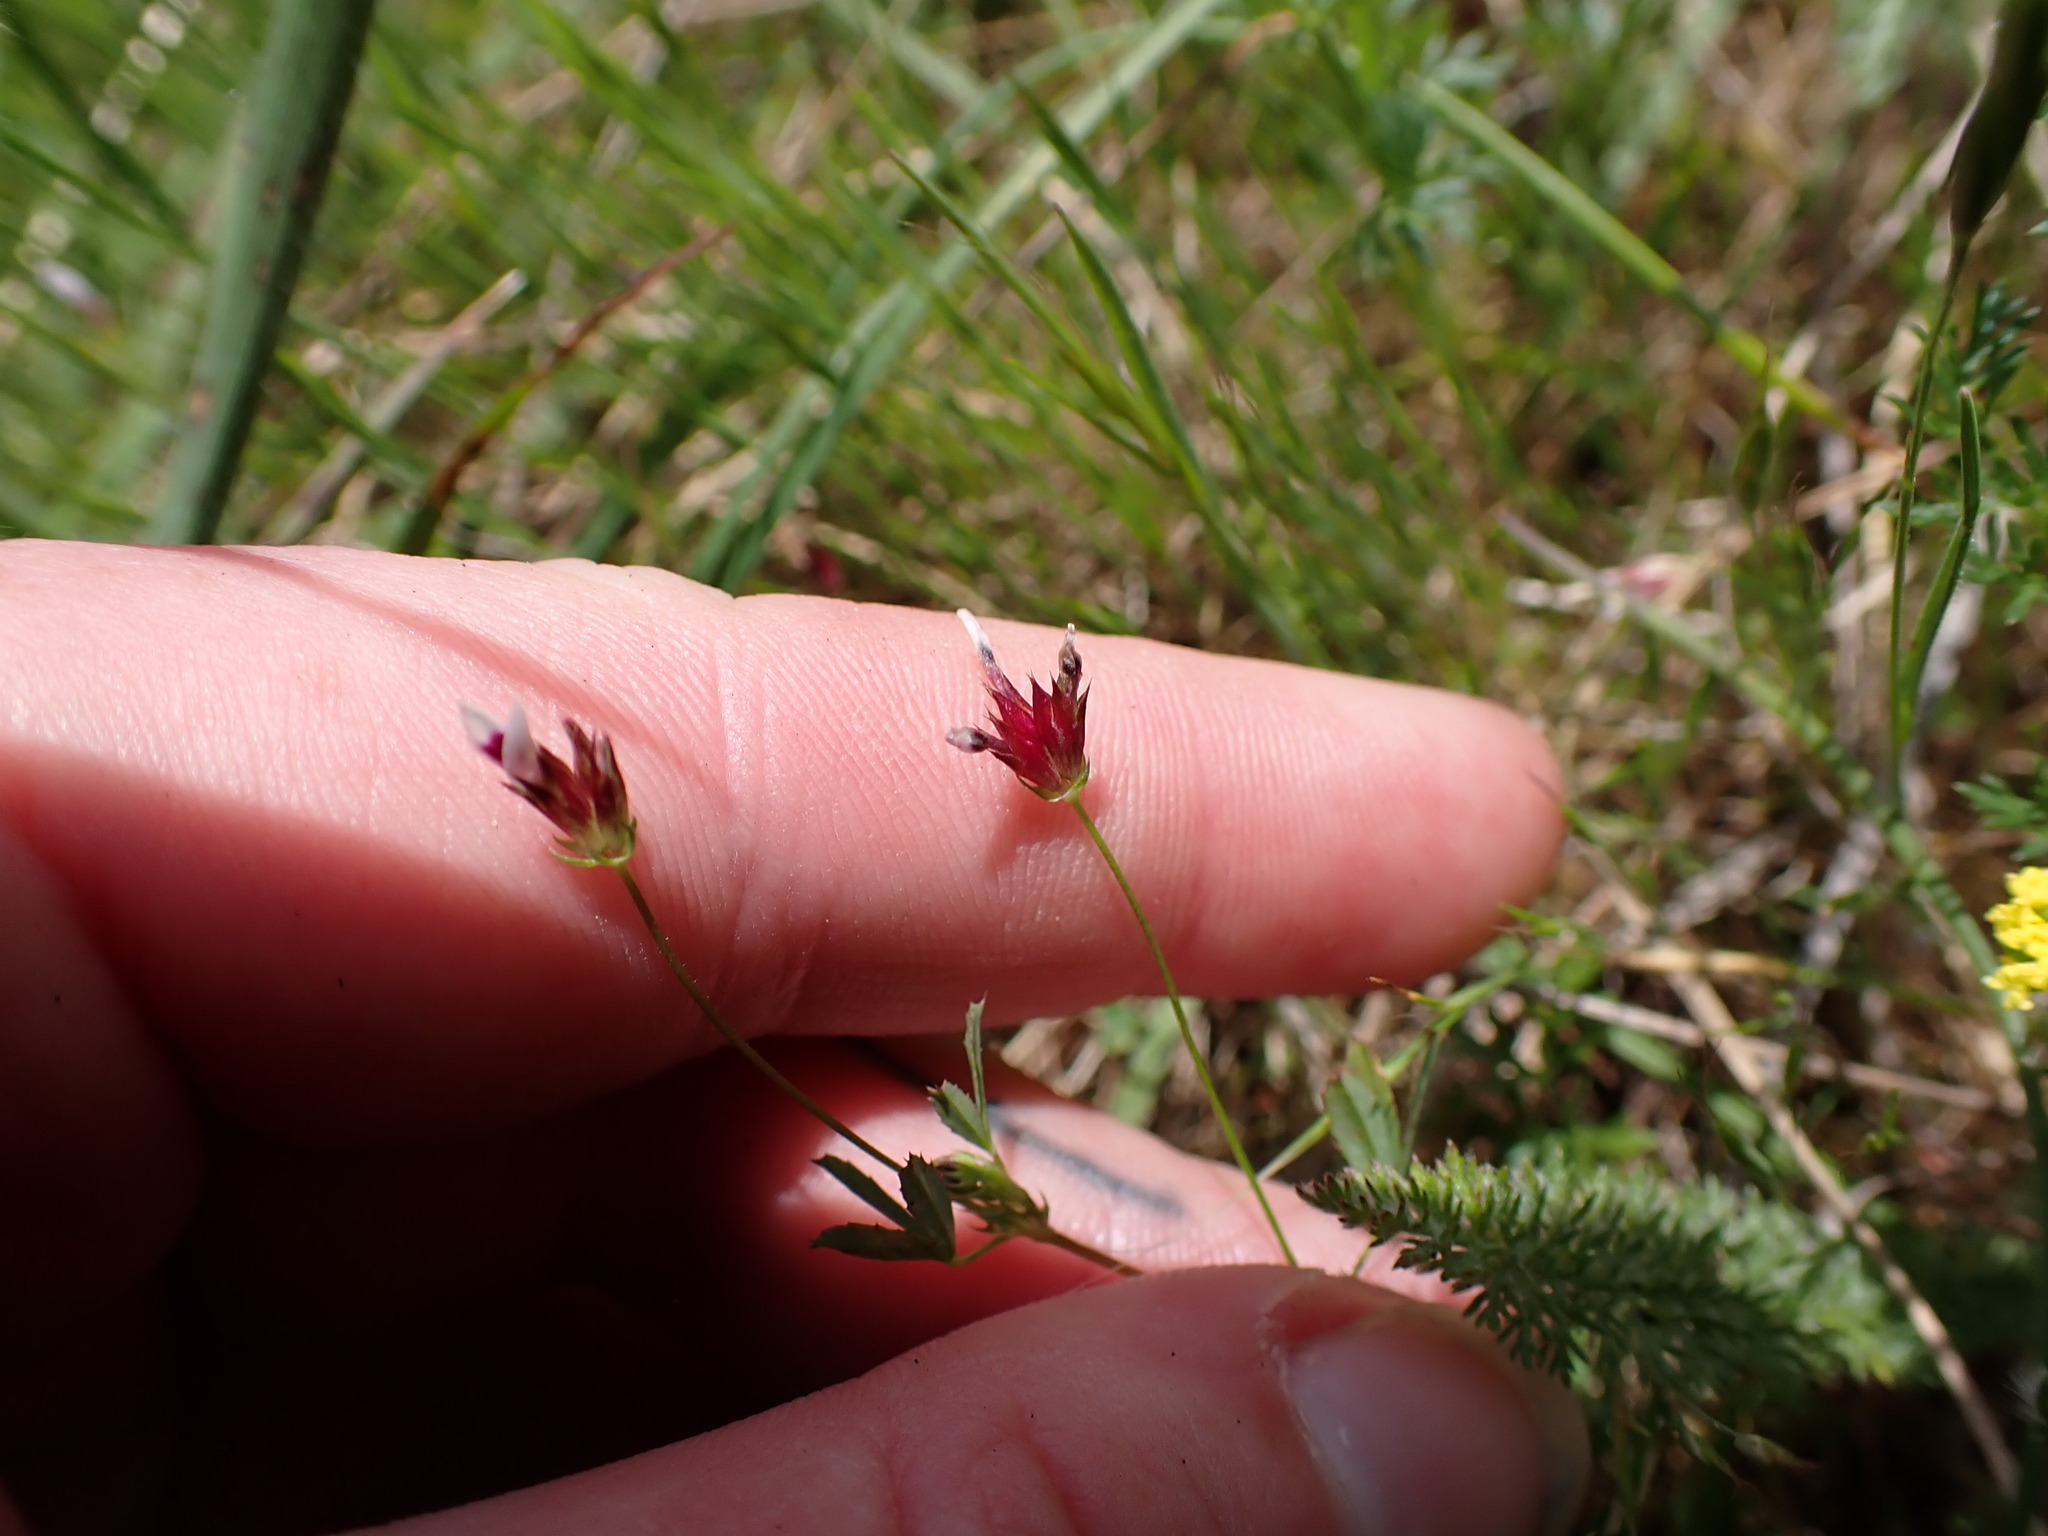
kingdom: Plantae
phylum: Tracheophyta
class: Magnoliopsida
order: Fabales
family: Fabaceae
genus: Trifolium
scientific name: Trifolium oliganthum
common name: Few-flower clover
